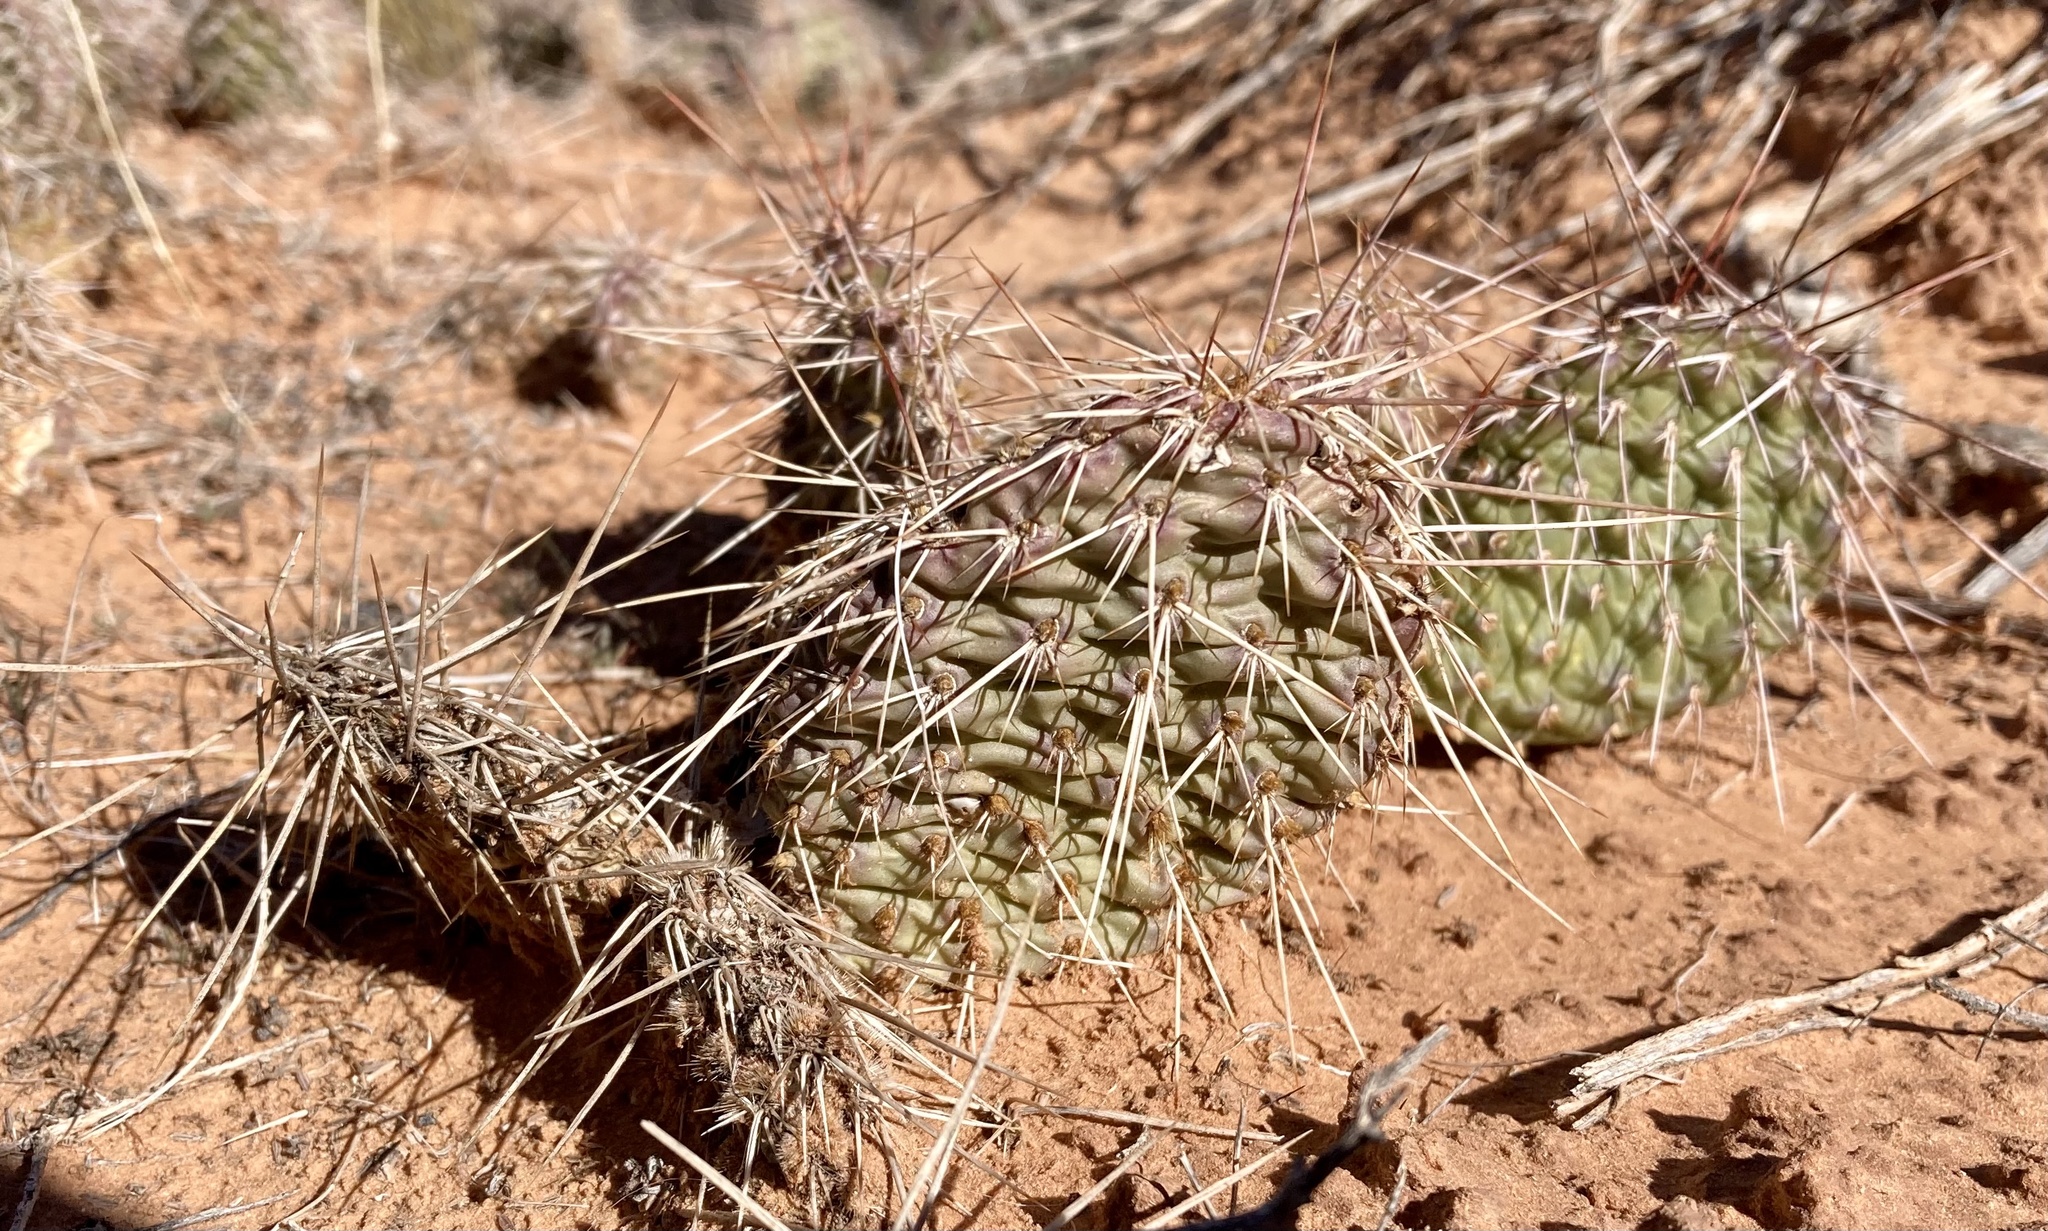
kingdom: Plantae
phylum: Tracheophyta
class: Magnoliopsida
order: Caryophyllales
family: Cactaceae
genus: Opuntia
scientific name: Opuntia polyacantha
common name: Plains prickly-pear
